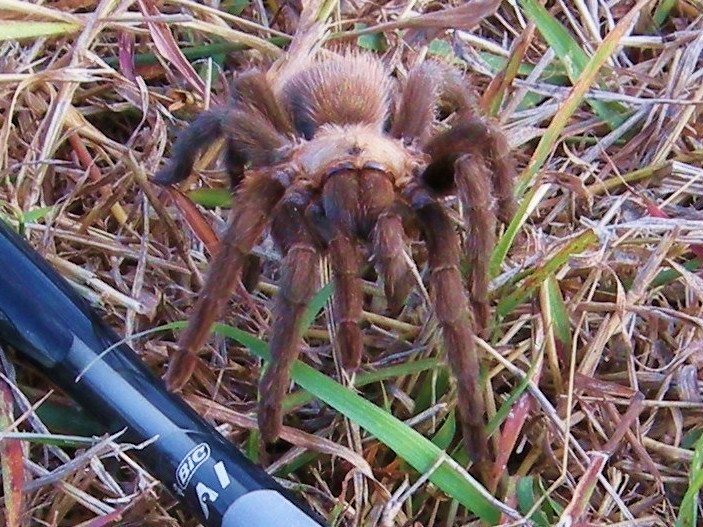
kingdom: Animalia
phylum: Arthropoda
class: Arachnida
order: Araneae
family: Theraphosidae
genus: Aphonopelma
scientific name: Aphonopelma anax
